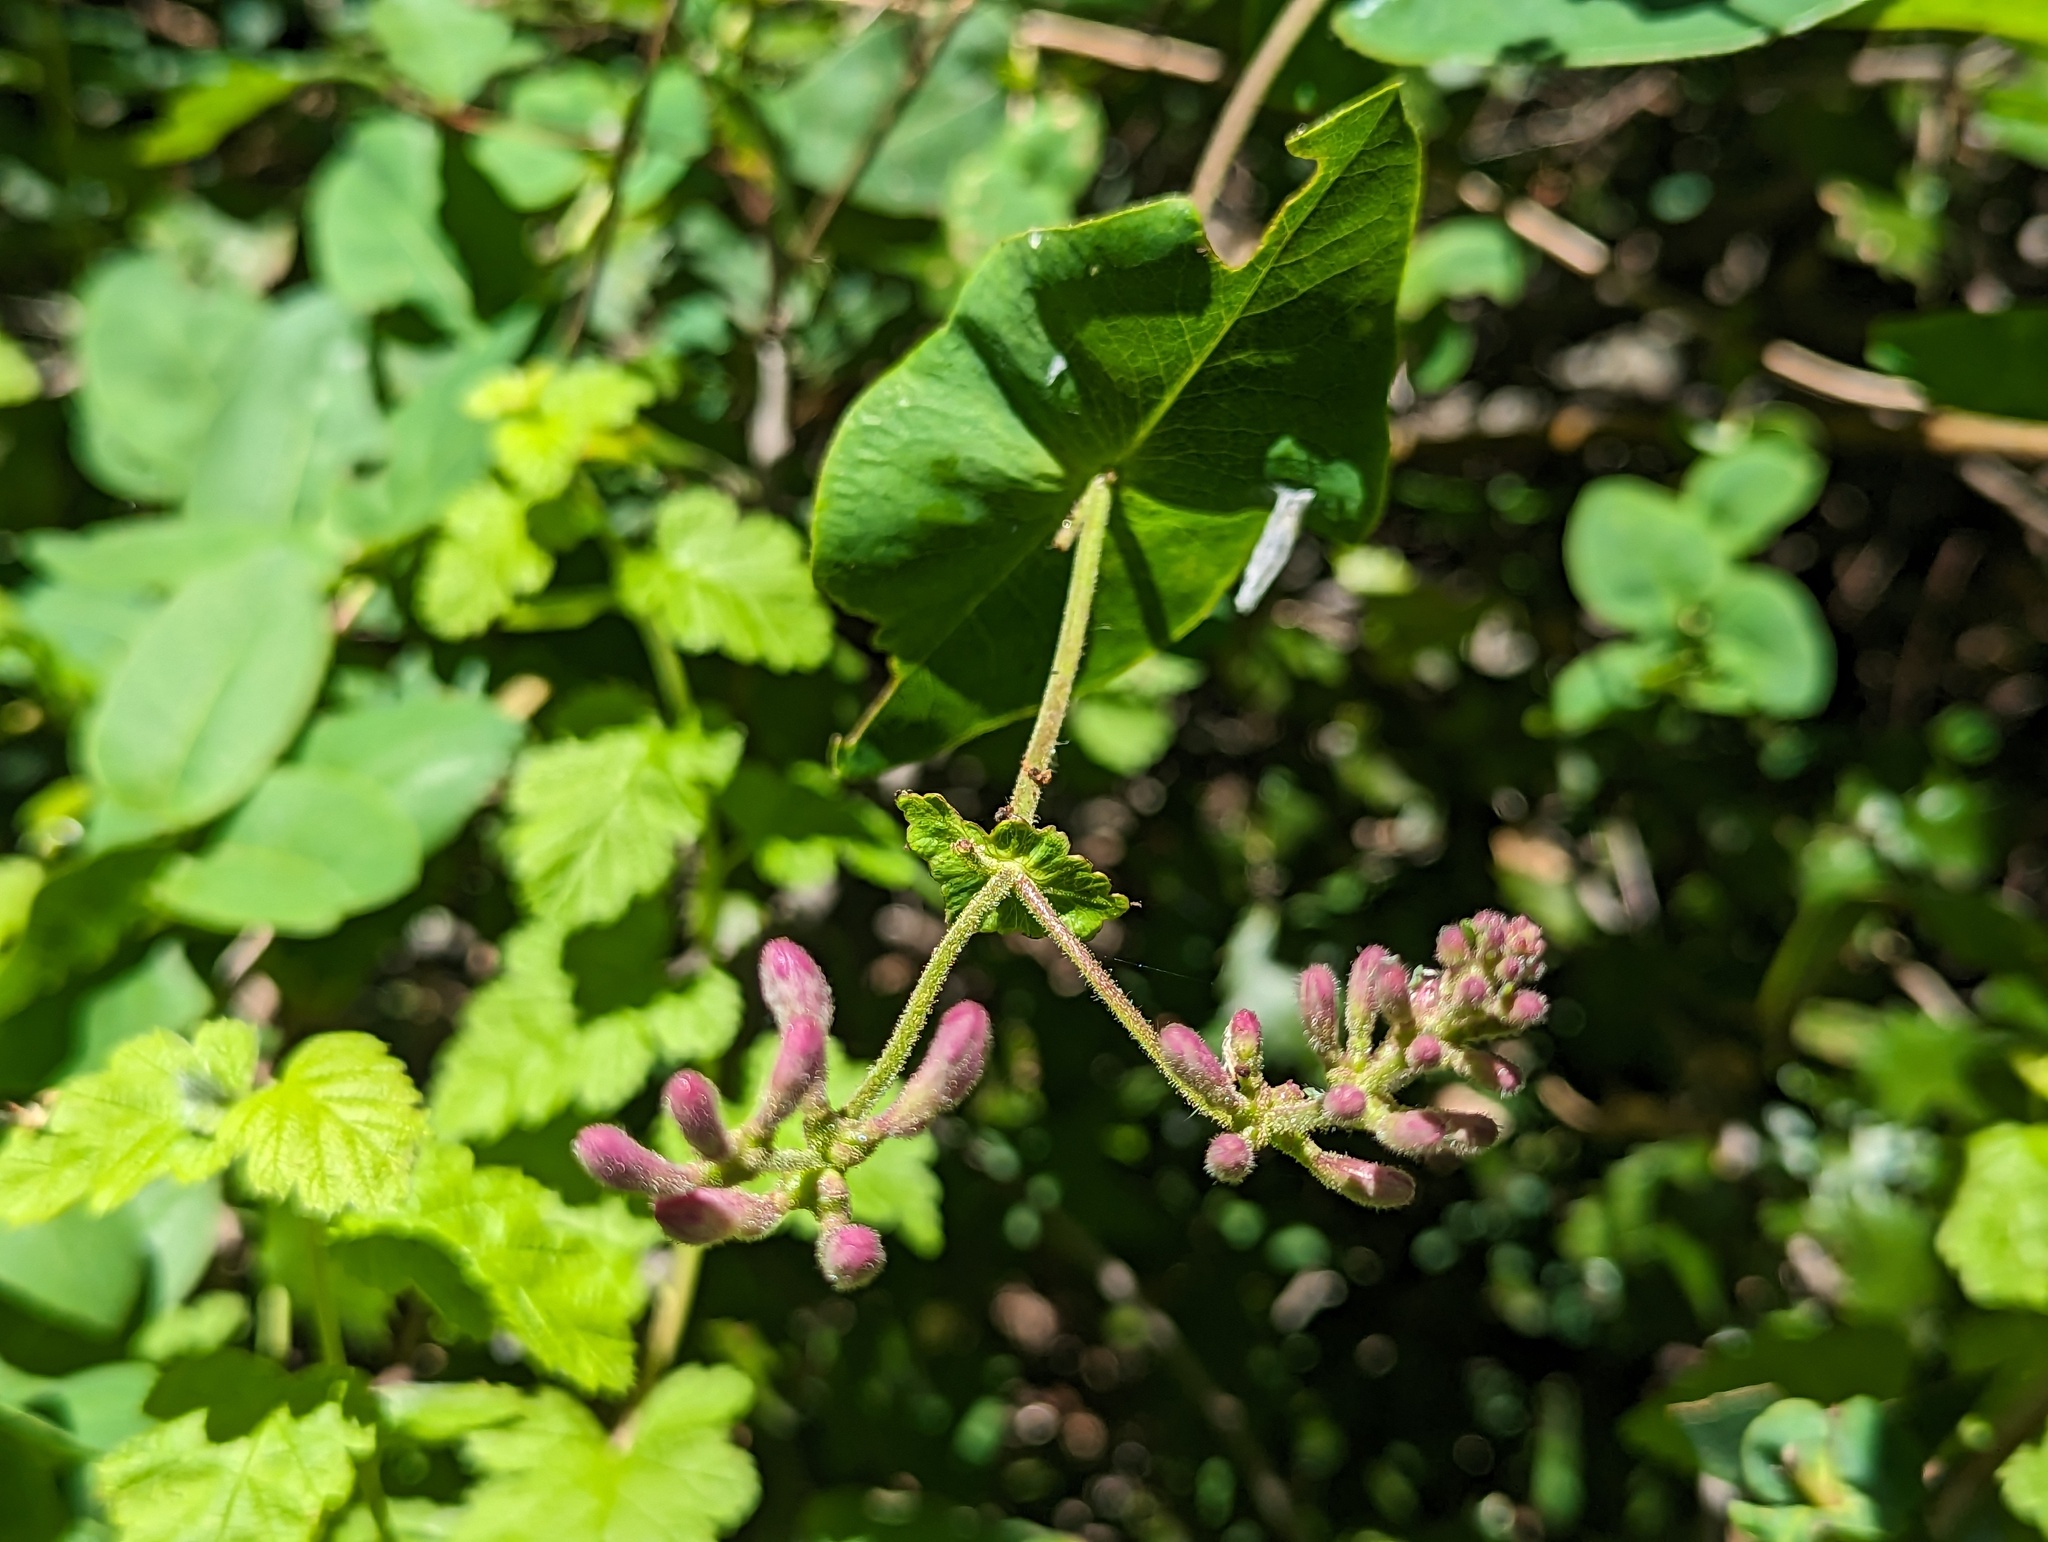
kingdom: Plantae
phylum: Tracheophyta
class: Magnoliopsida
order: Dipsacales
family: Caprifoliaceae
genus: Lonicera
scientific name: Lonicera hispidula
